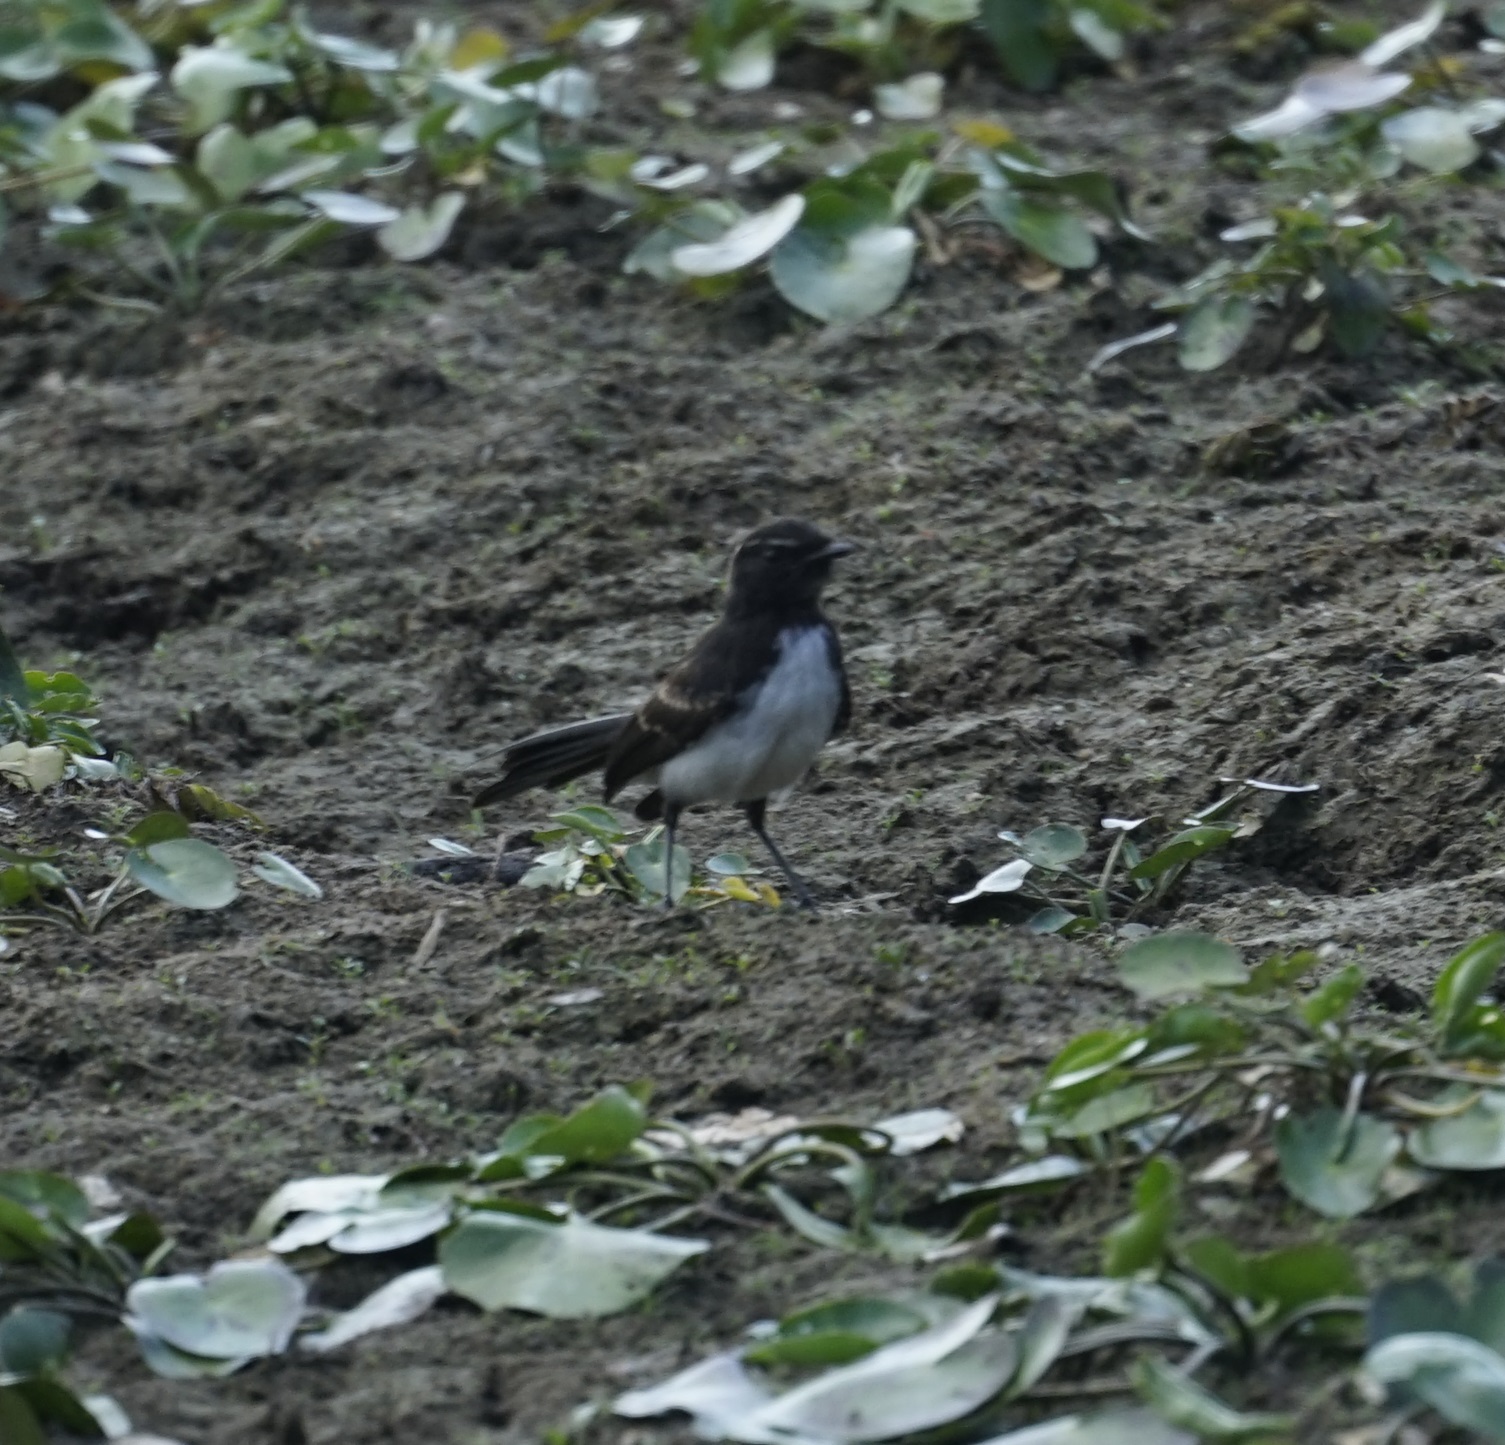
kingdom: Animalia
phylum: Chordata
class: Aves
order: Passeriformes
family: Rhipiduridae
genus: Rhipidura
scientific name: Rhipidura leucophrys
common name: Willie wagtail
